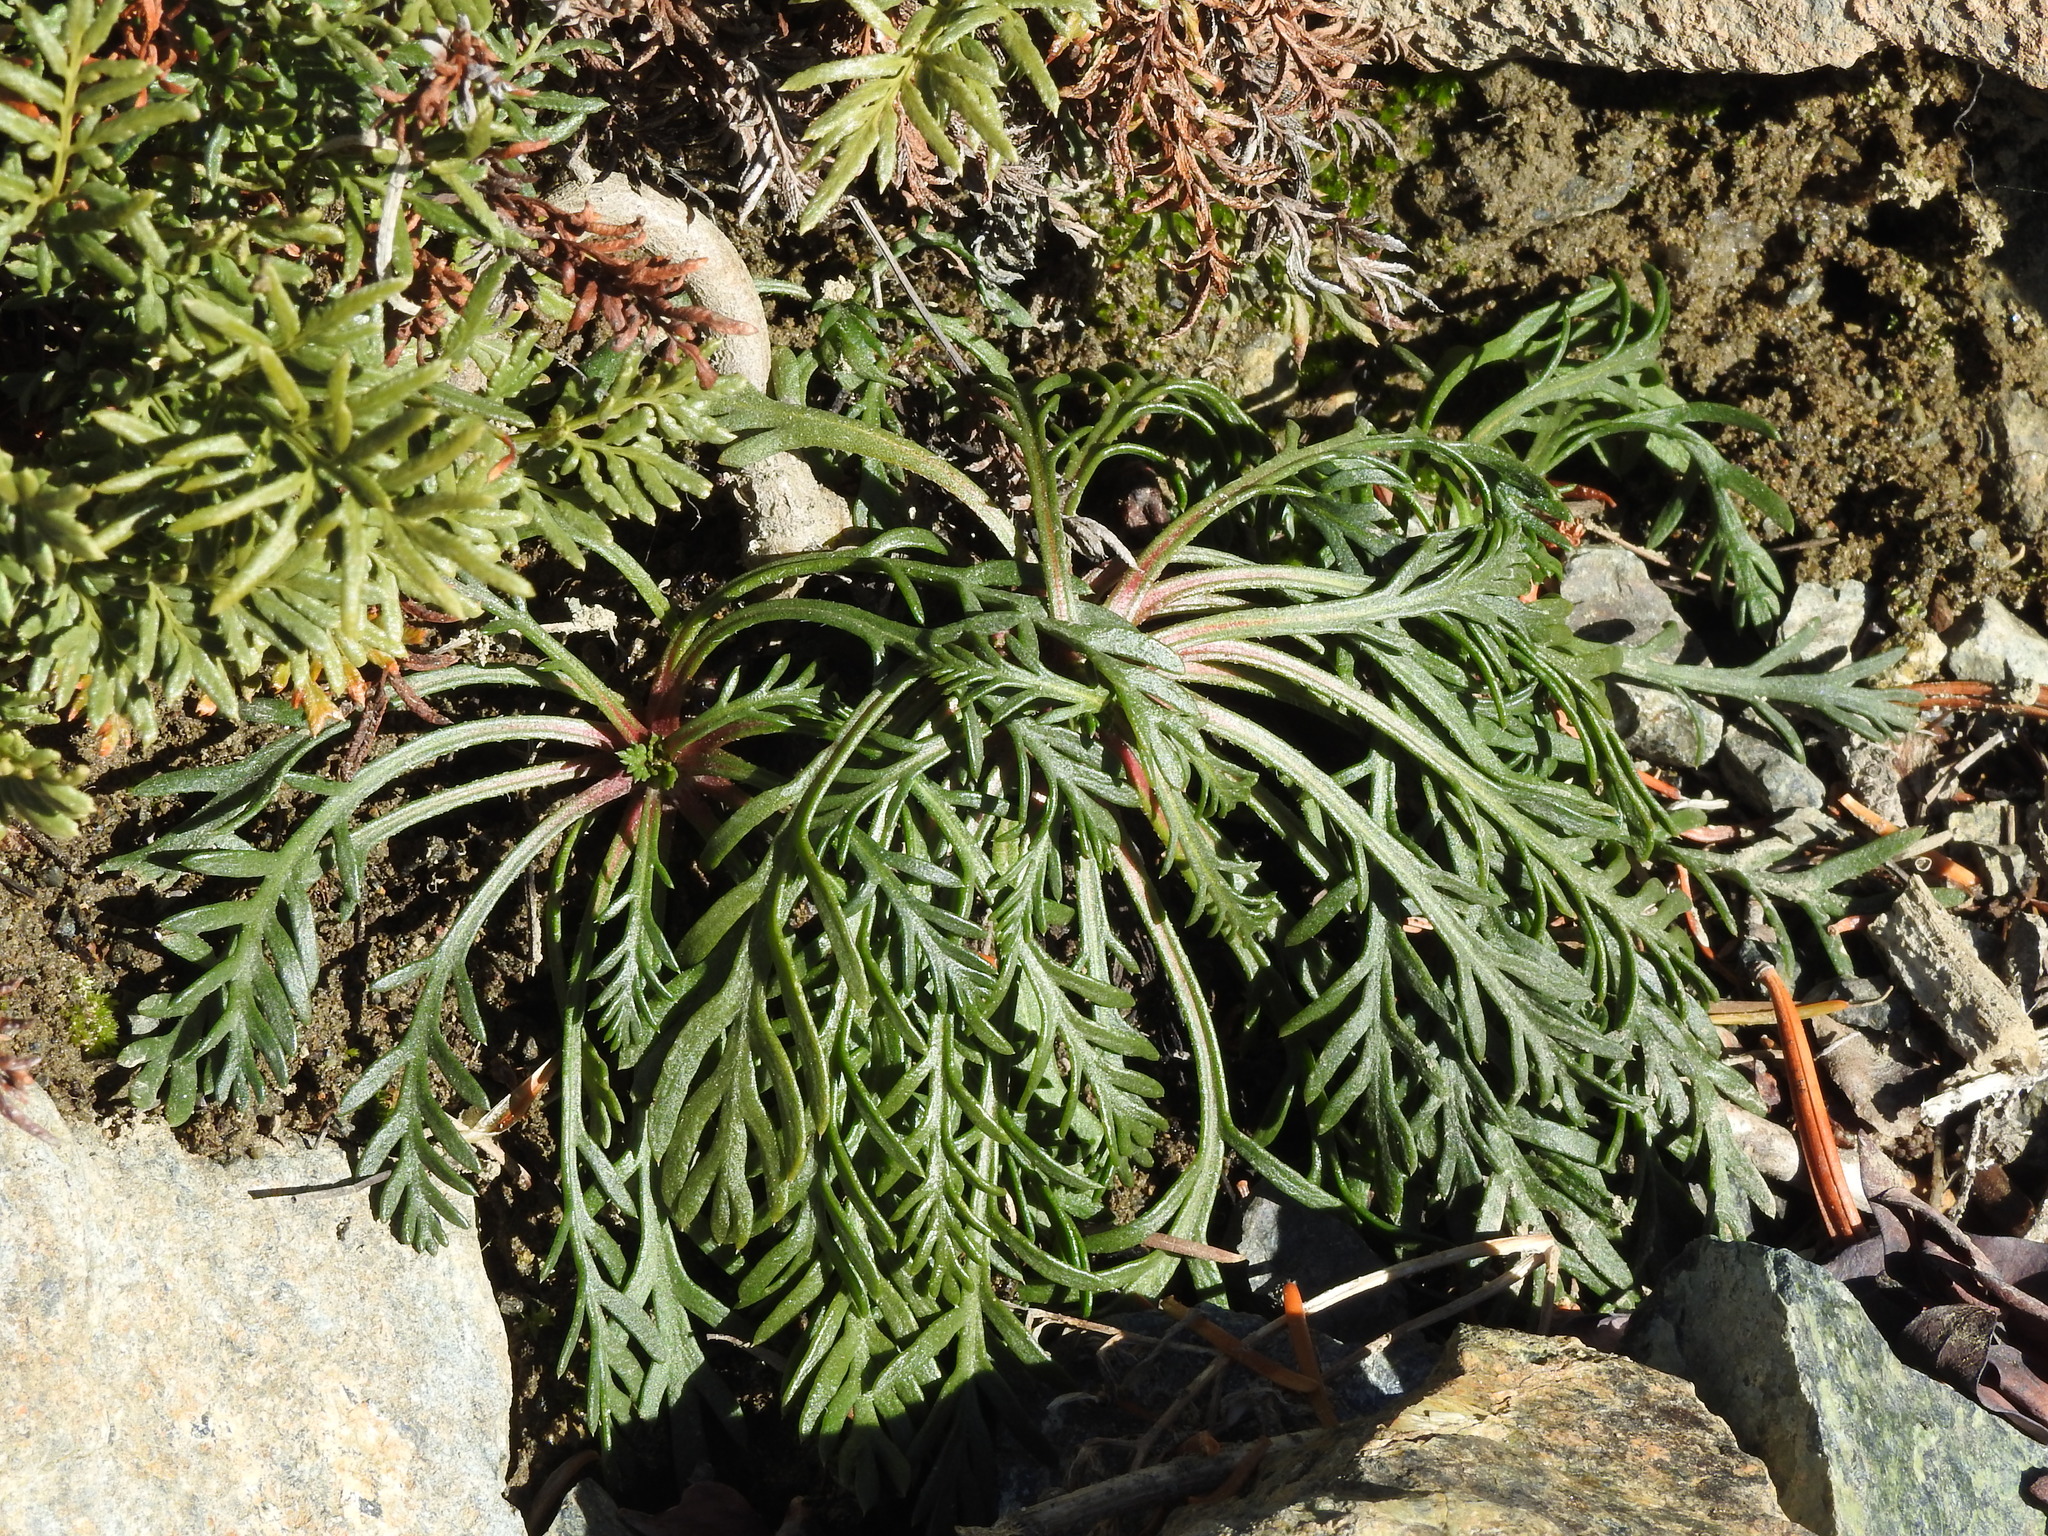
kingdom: Plantae
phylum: Tracheophyta
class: Magnoliopsida
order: Ericales
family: Polemoniaceae
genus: Ipomopsis
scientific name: Ipomopsis aggregata
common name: Scarlet gilia
